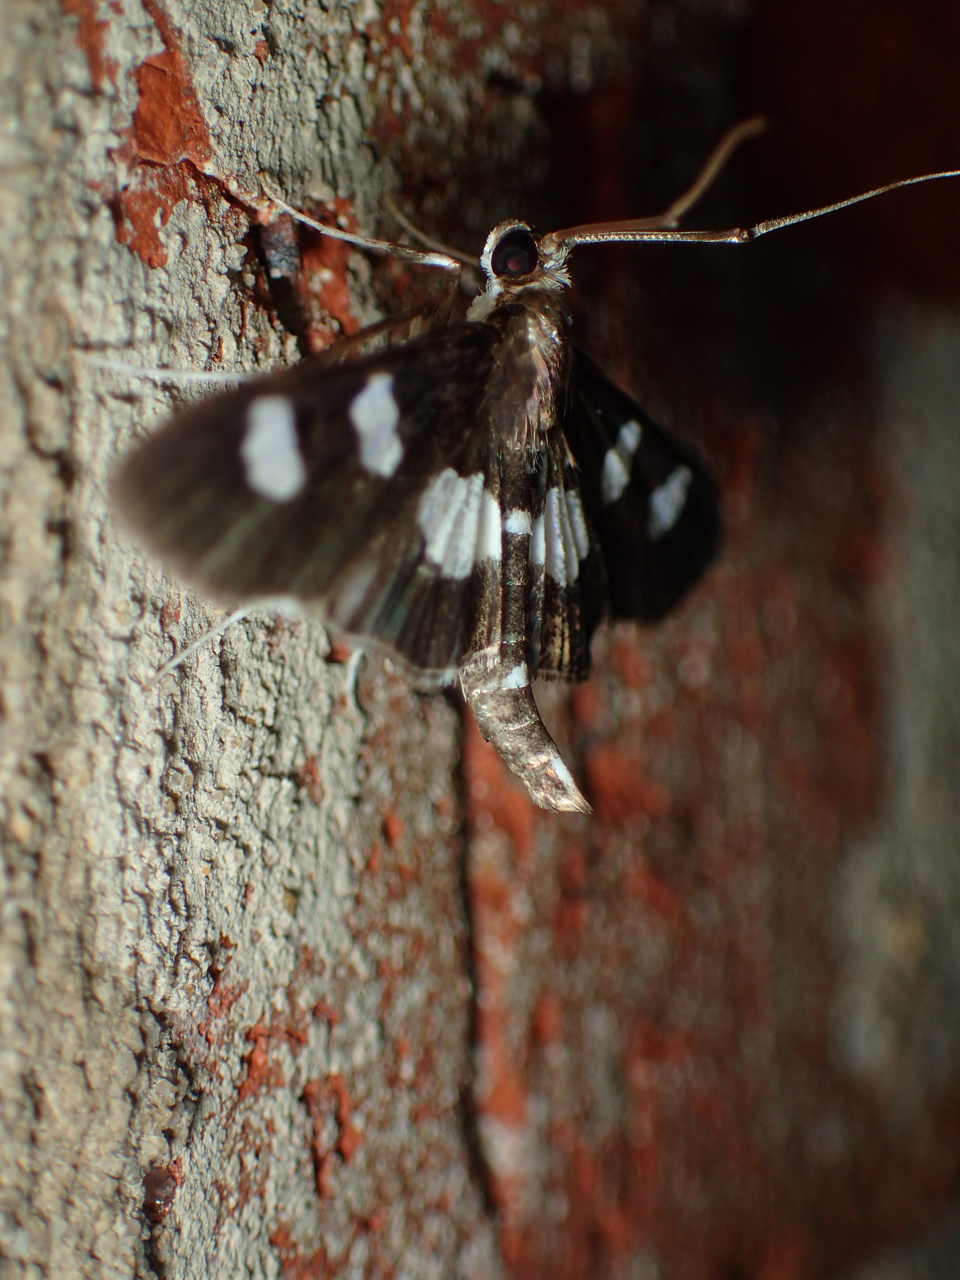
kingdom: Animalia
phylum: Arthropoda
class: Insecta
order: Lepidoptera
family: Crambidae
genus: Desmia
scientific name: Desmia
